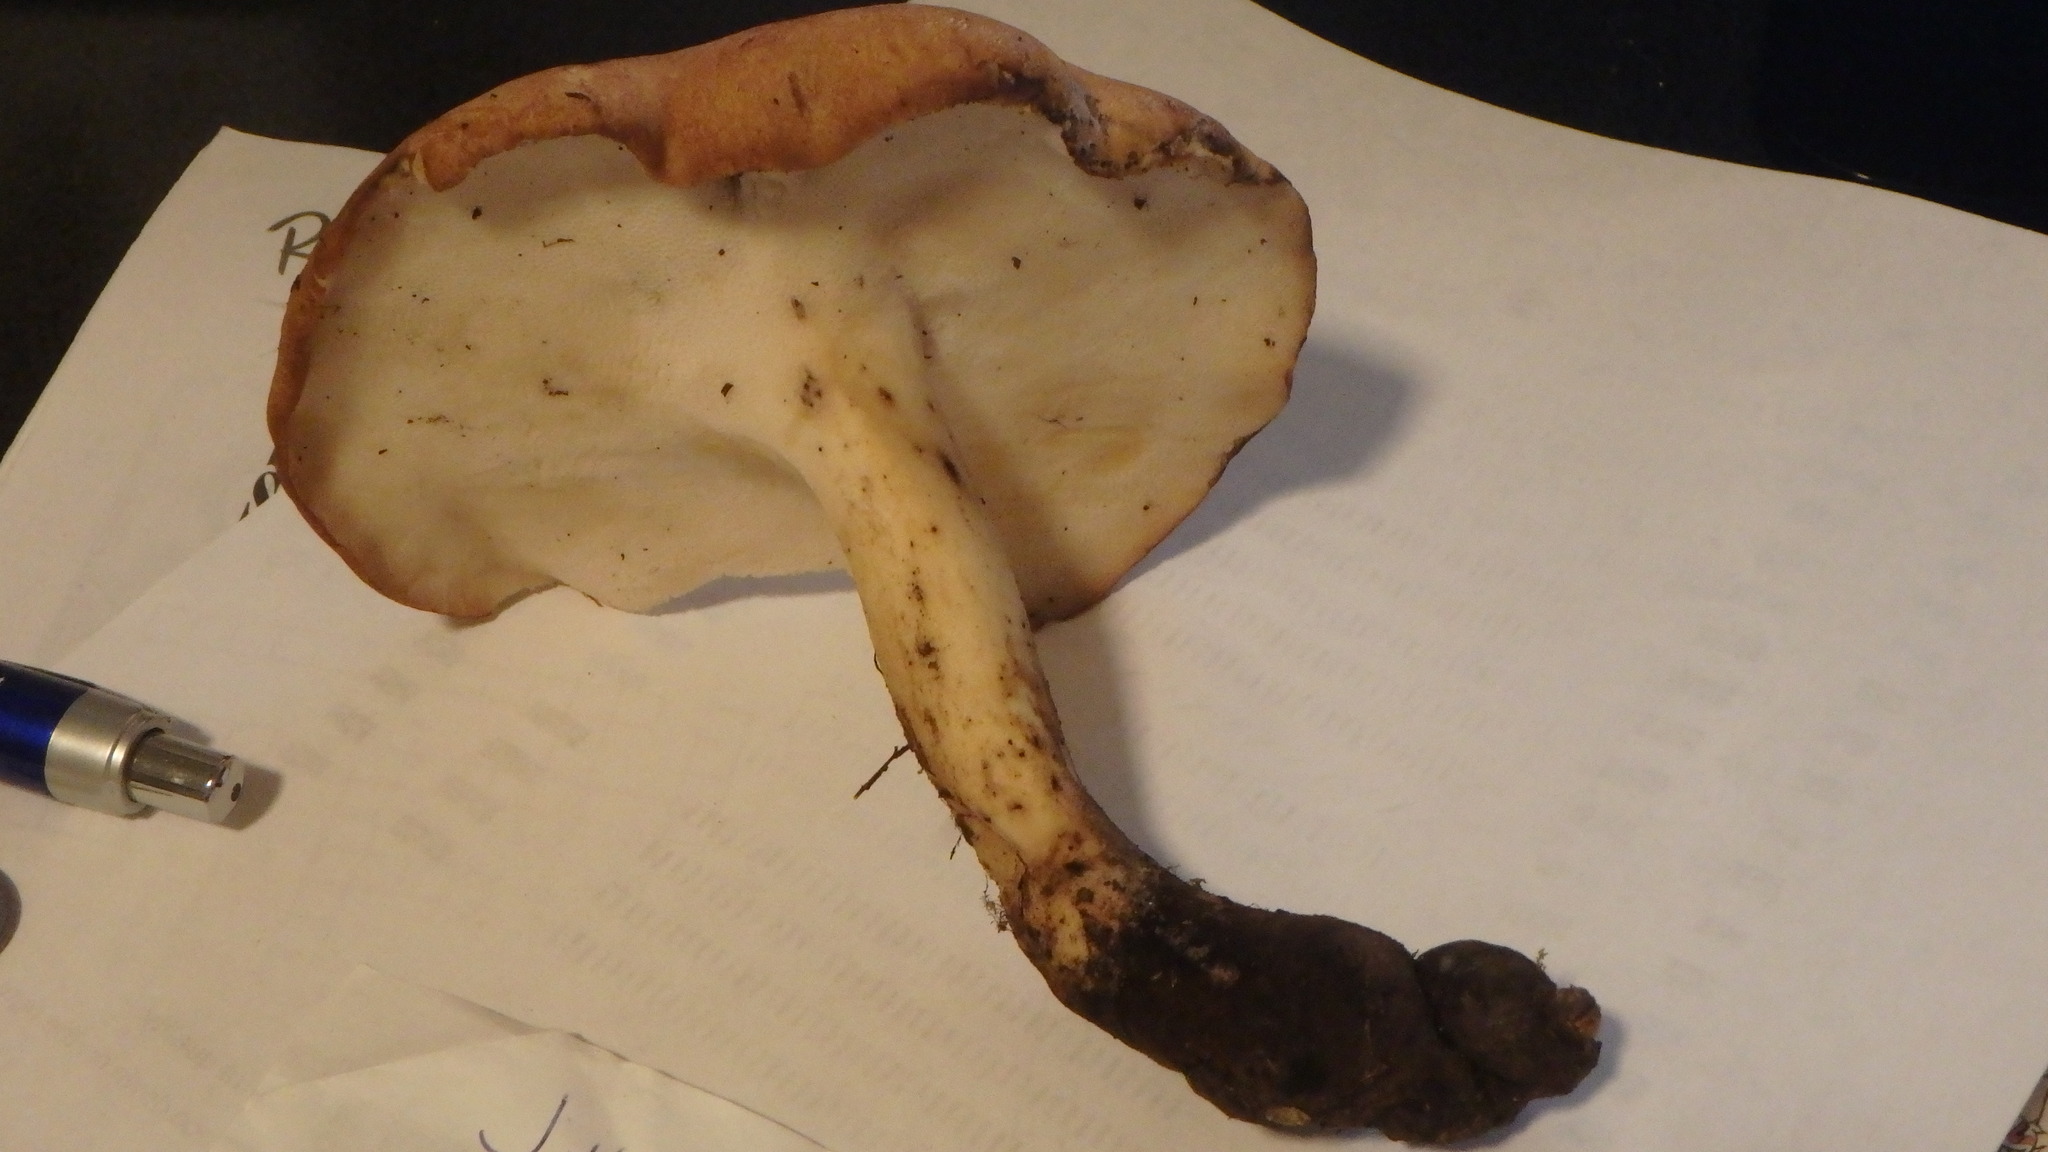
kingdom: Fungi
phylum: Basidiomycota
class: Agaricomycetes
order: Polyporales
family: Polyporaceae
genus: Polyporus
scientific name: Polyporus radicatus
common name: Rooting polypore
